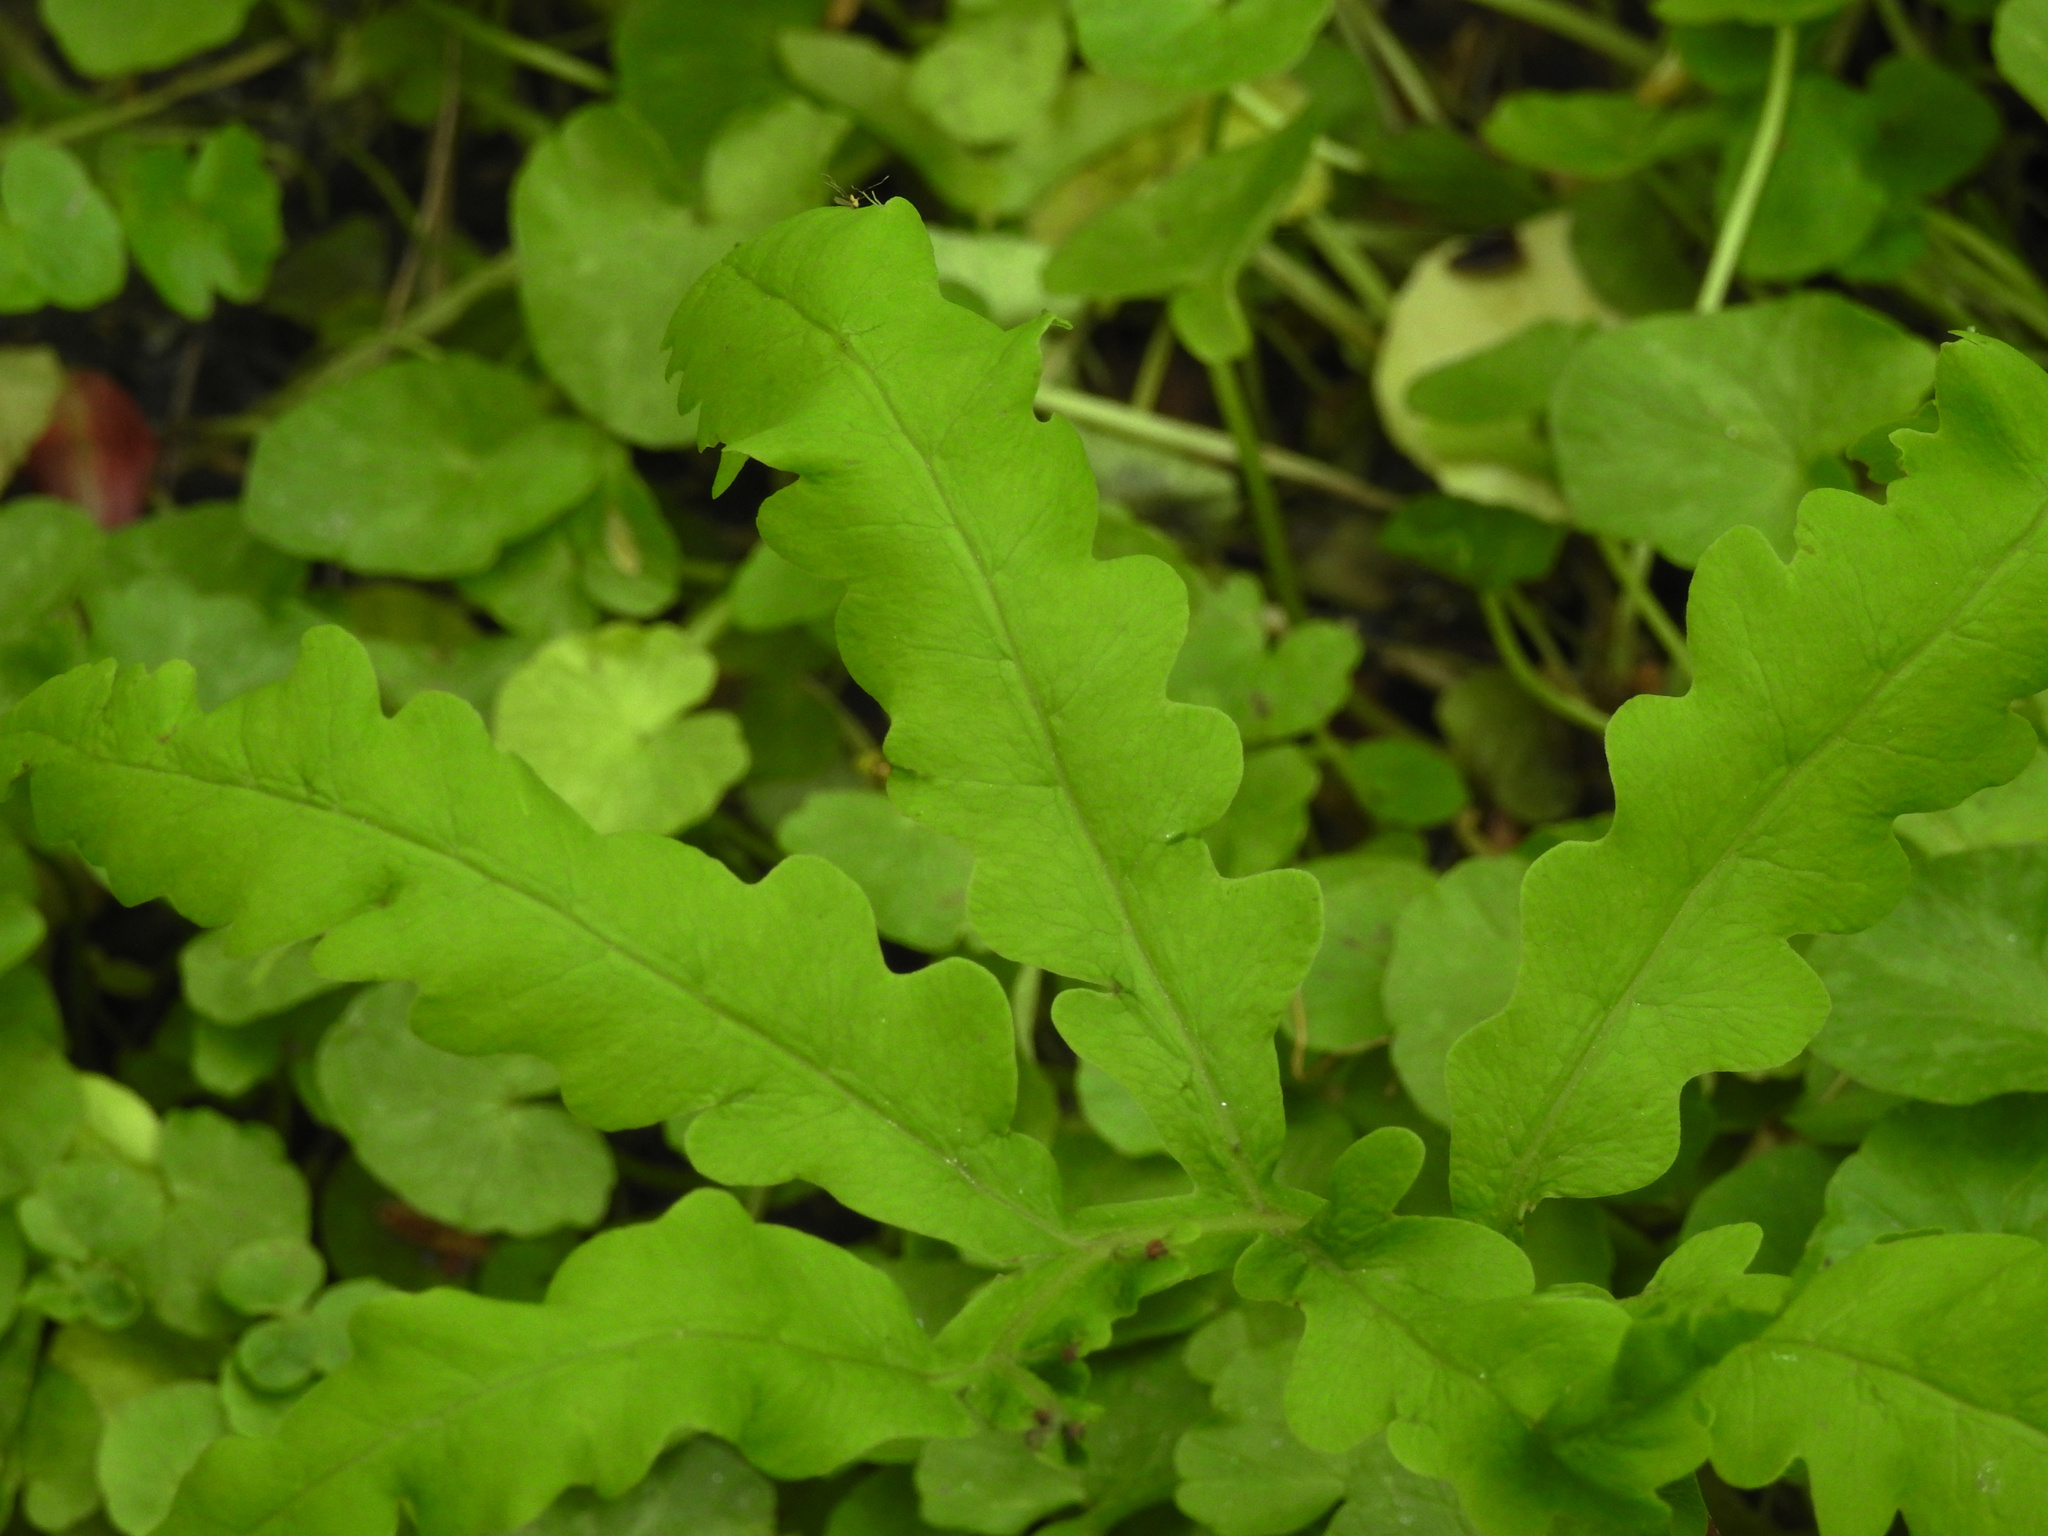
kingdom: Plantae
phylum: Tracheophyta
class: Polypodiopsida
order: Polypodiales
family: Onocleaceae
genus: Onoclea
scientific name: Onoclea sensibilis
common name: Sensitive fern
